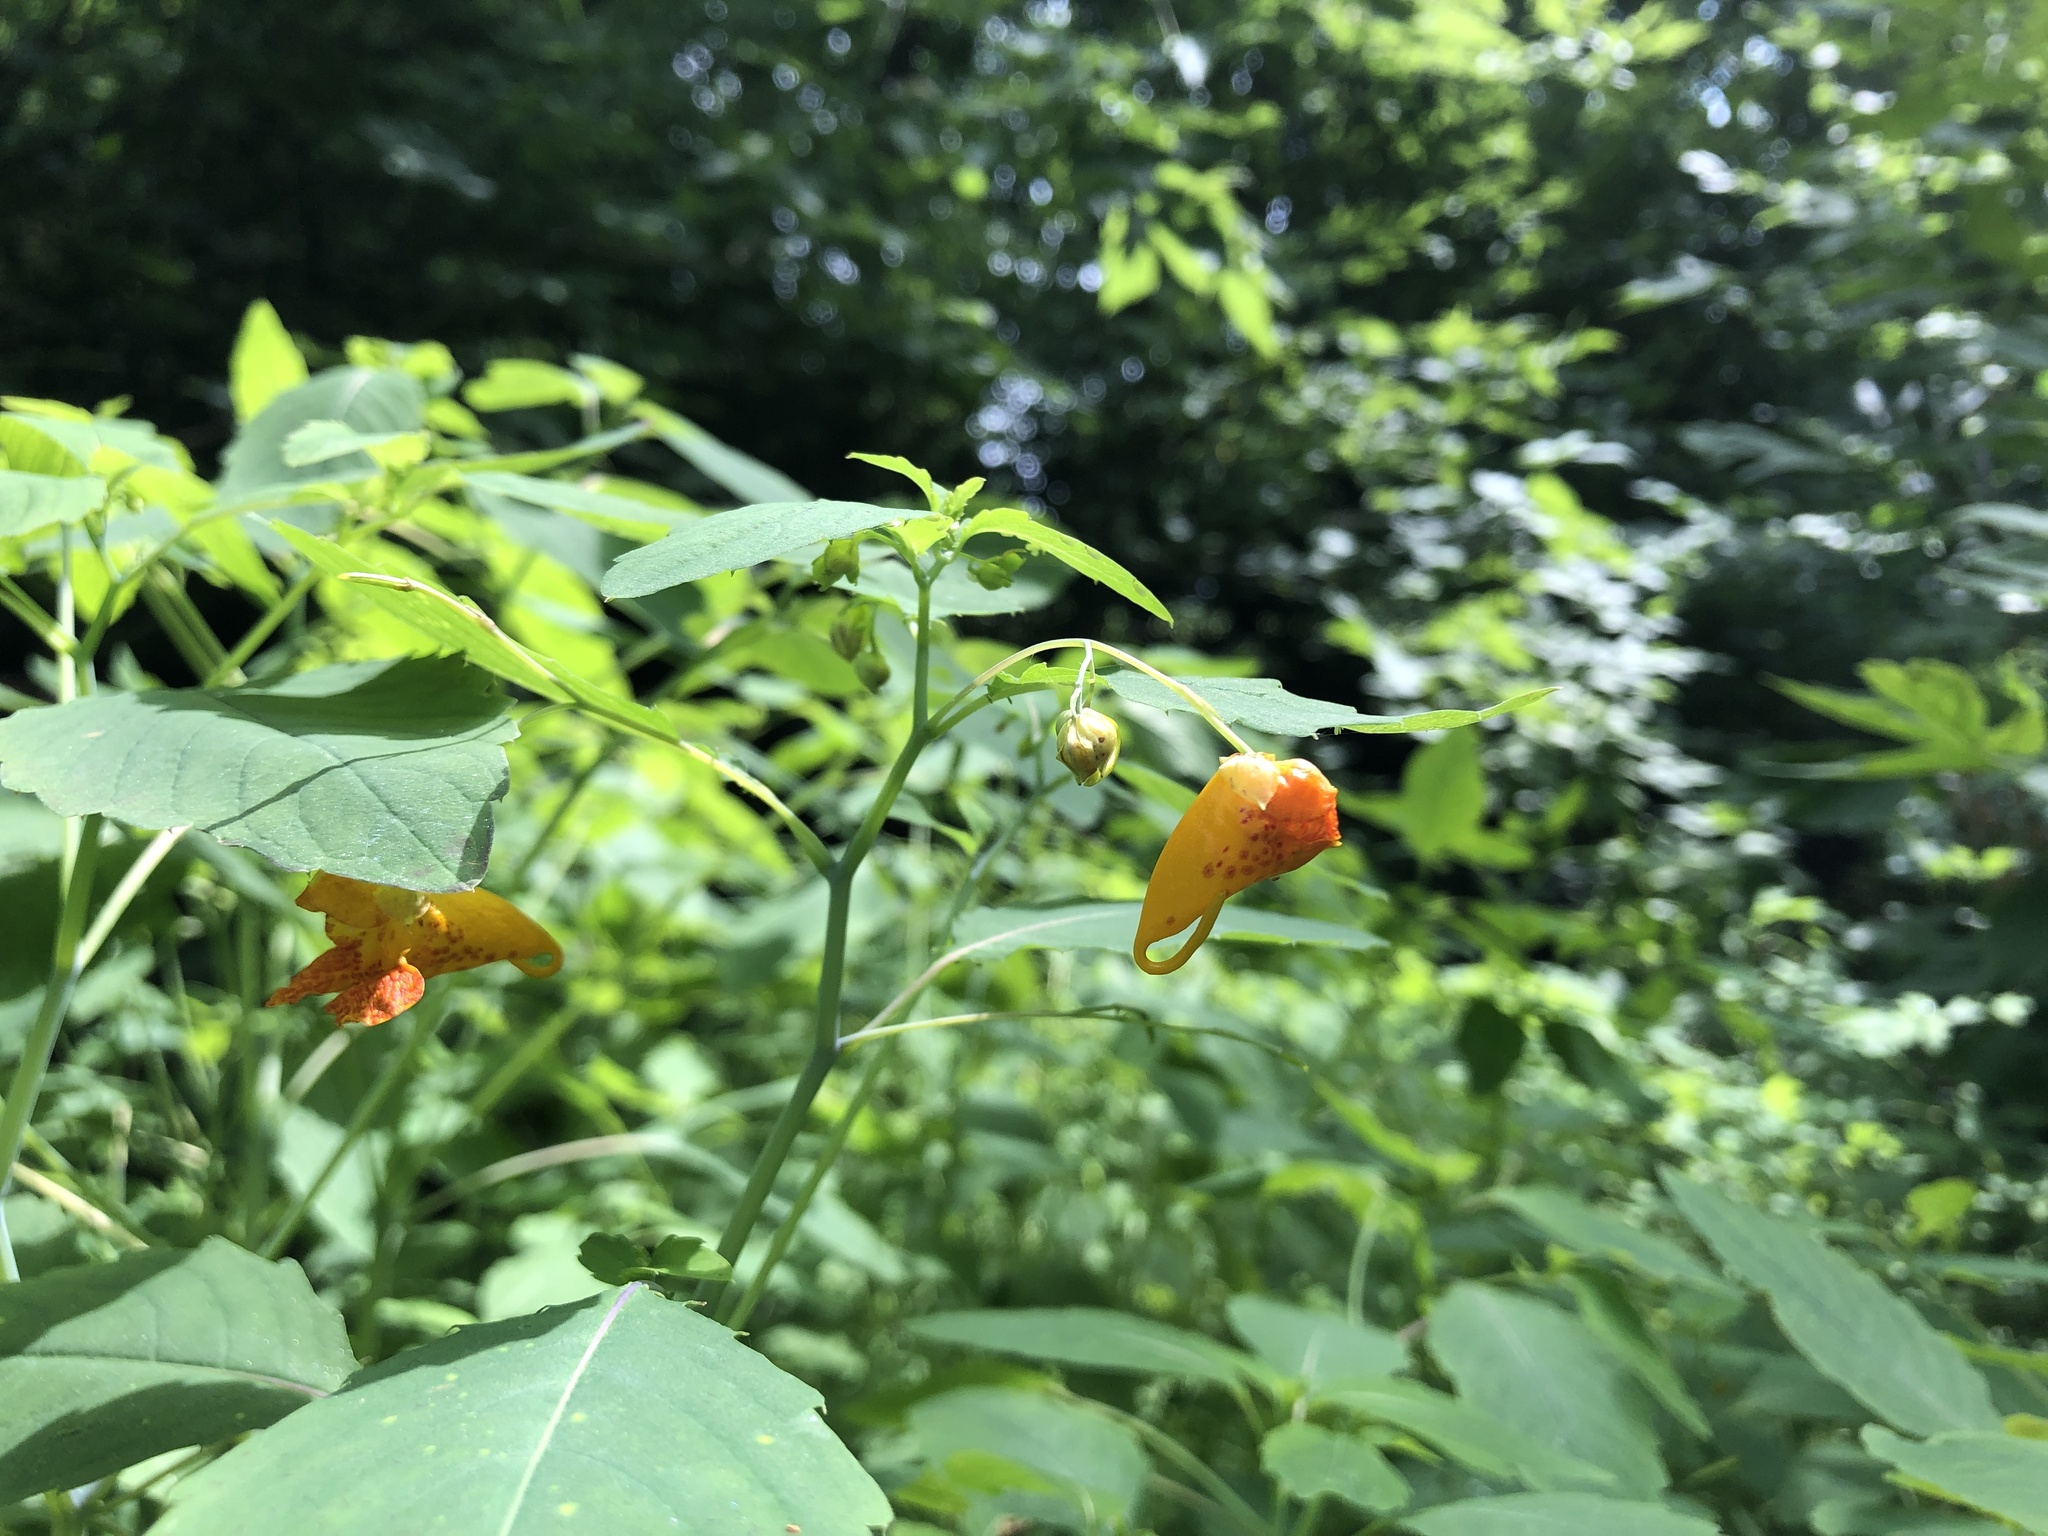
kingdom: Plantae
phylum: Tracheophyta
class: Magnoliopsida
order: Ericales
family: Balsaminaceae
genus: Impatiens
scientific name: Impatiens capensis
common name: Orange balsam
